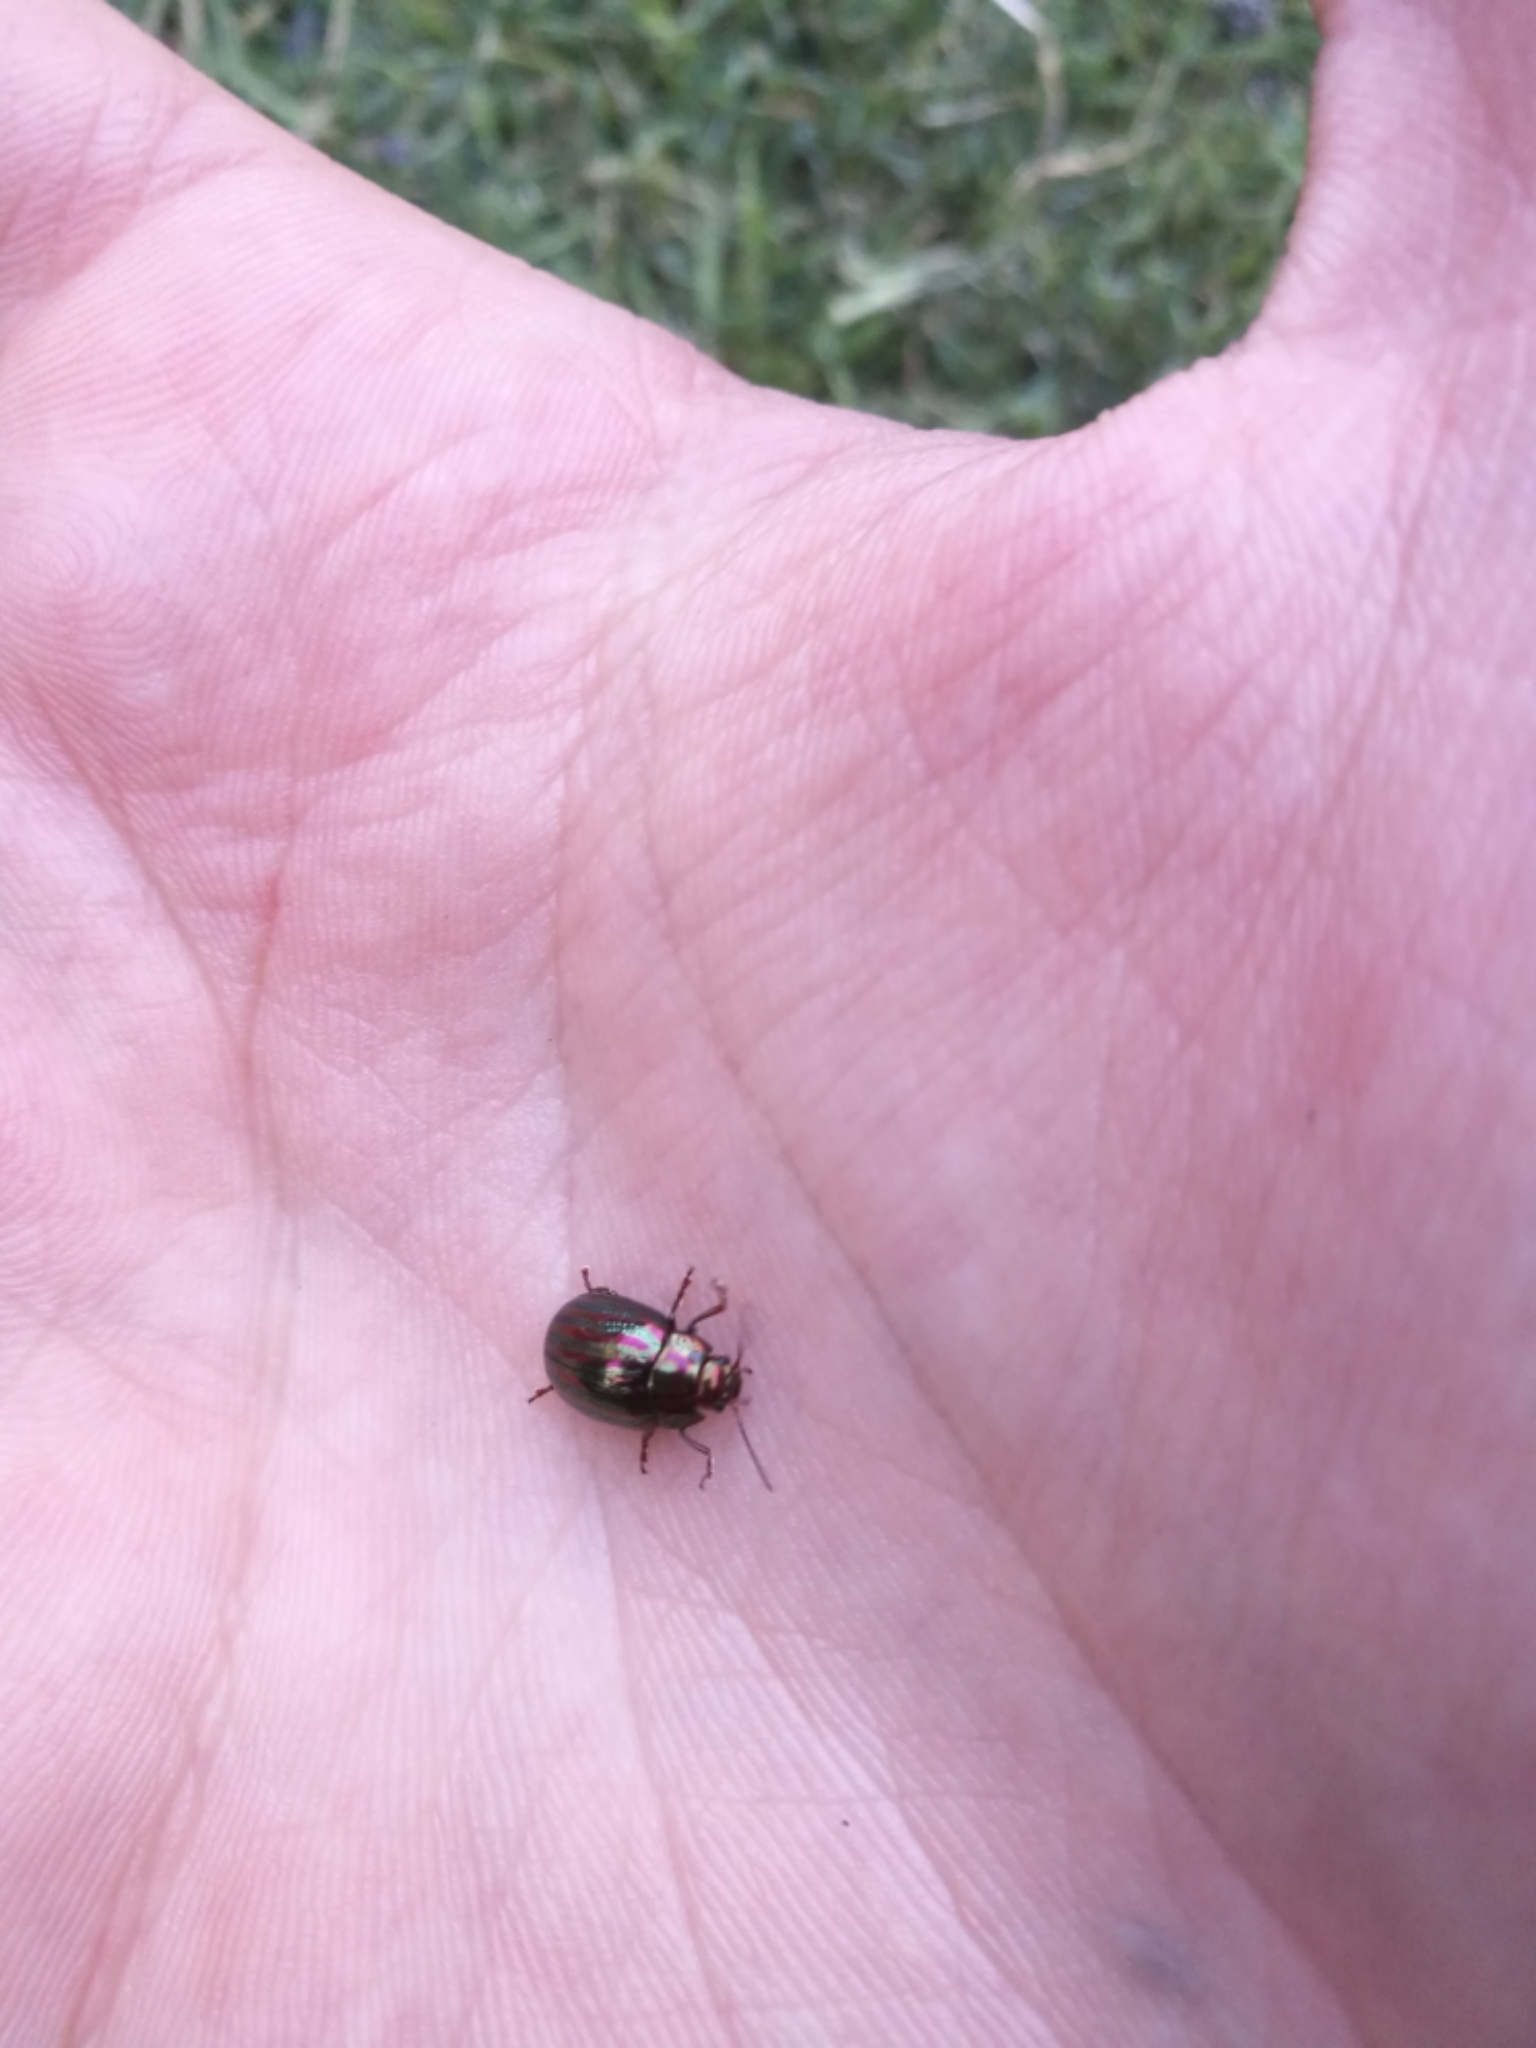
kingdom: Animalia
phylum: Arthropoda
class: Insecta
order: Coleoptera
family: Chrysomelidae
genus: Chrysolina
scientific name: Chrysolina americana
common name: Rosemary beetle
